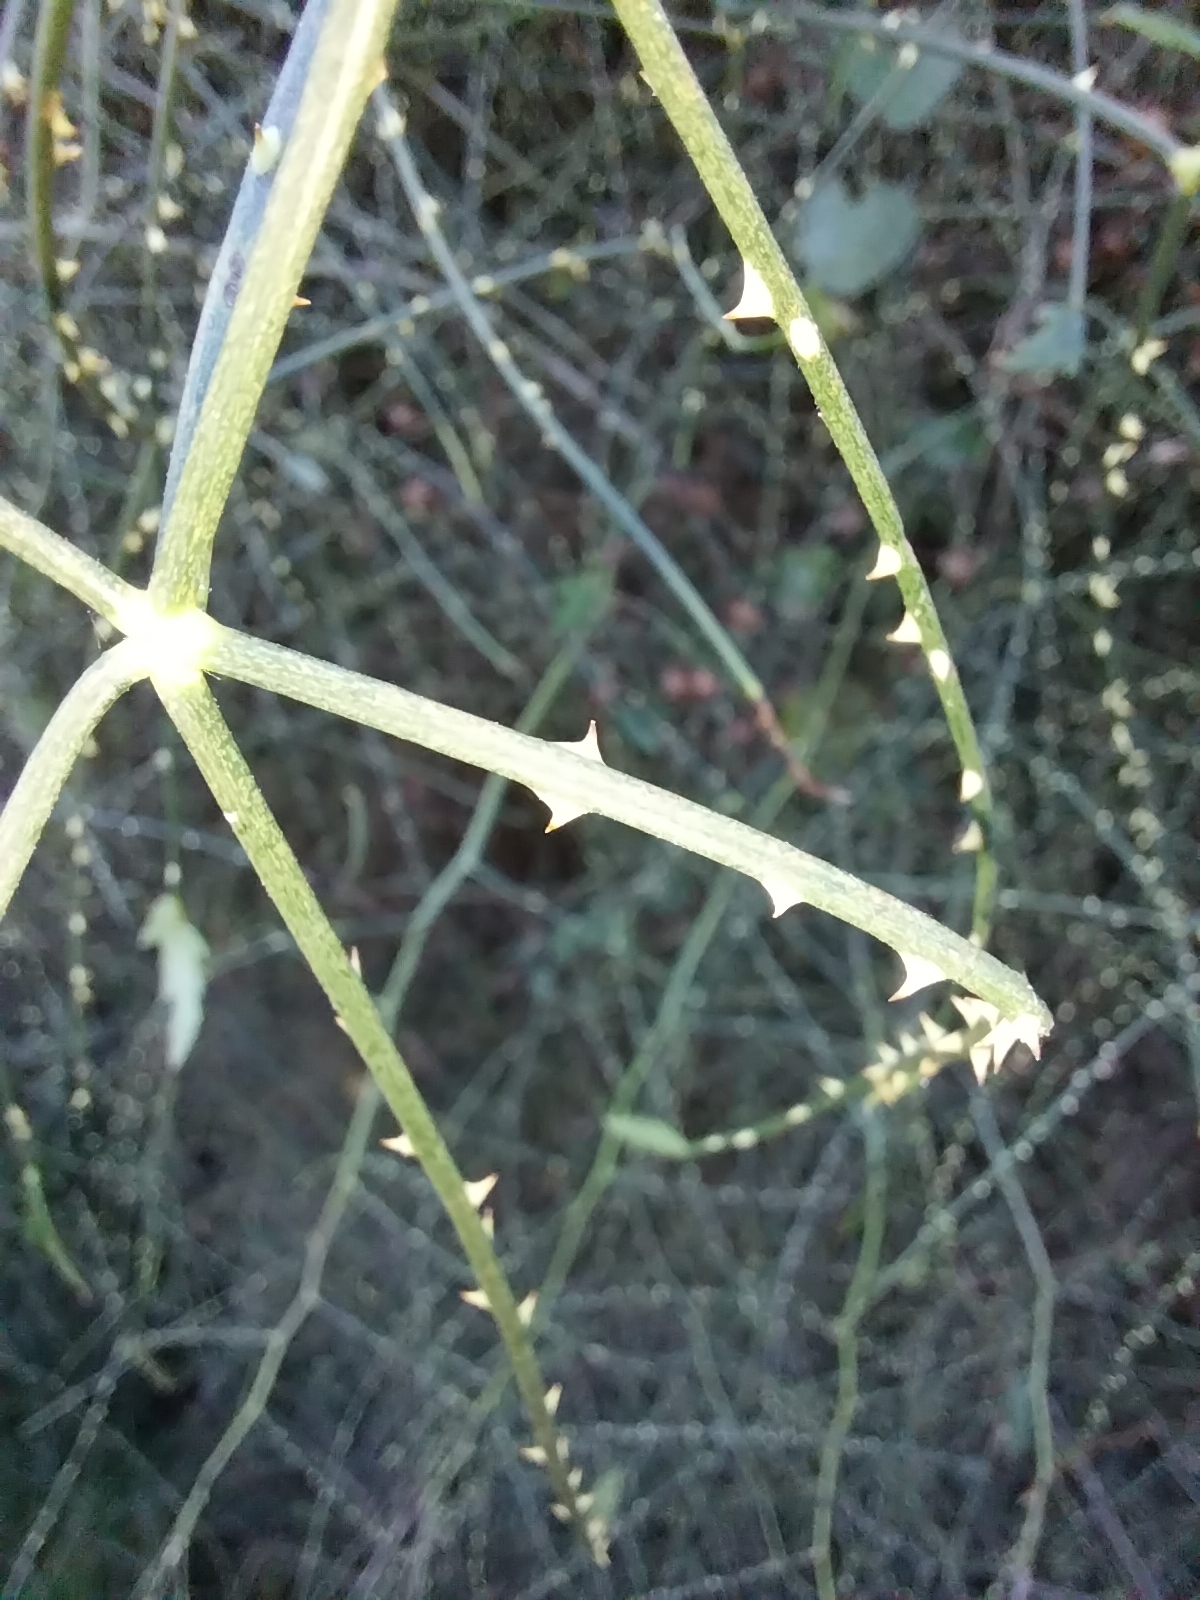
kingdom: Plantae
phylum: Tracheophyta
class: Magnoliopsida
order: Rosales
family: Rosaceae
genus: Rubus
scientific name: Rubus squarrosus
